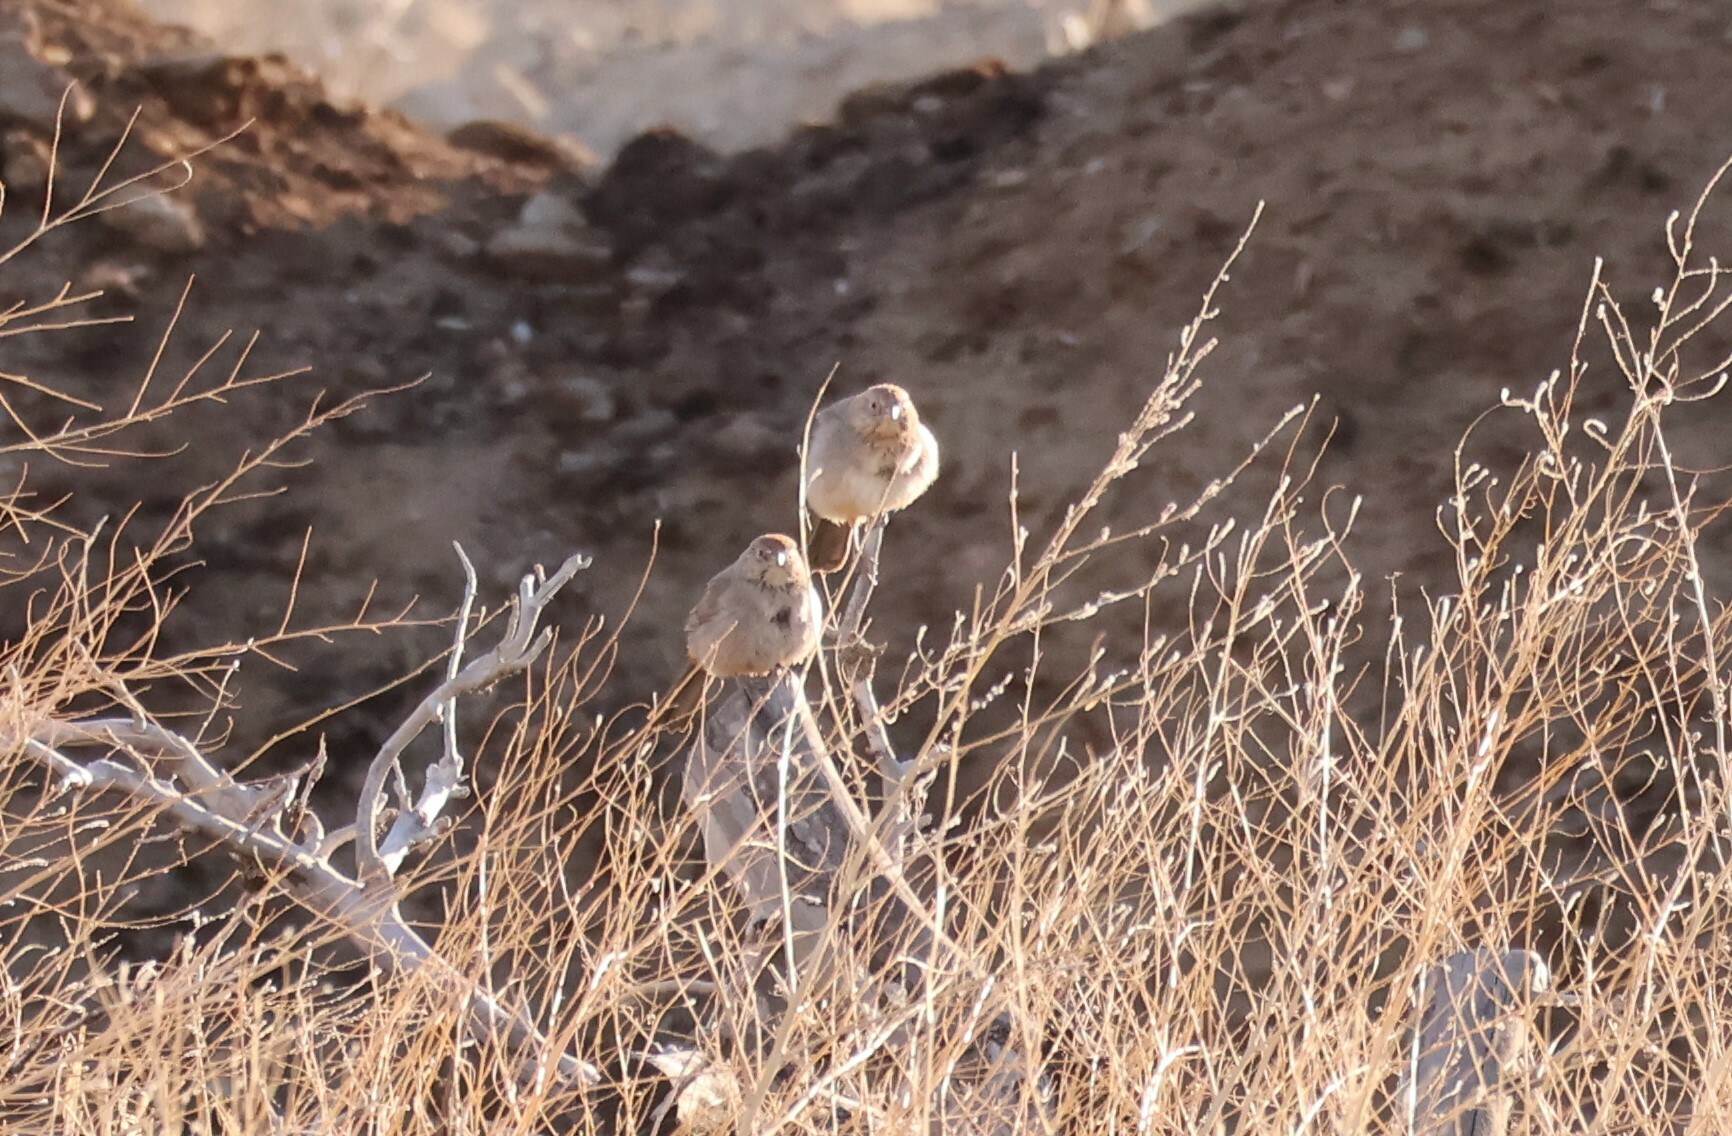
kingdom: Animalia
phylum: Chordata
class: Aves
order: Passeriformes
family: Passerellidae
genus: Melozone
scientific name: Melozone fusca
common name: Canyon towhee
